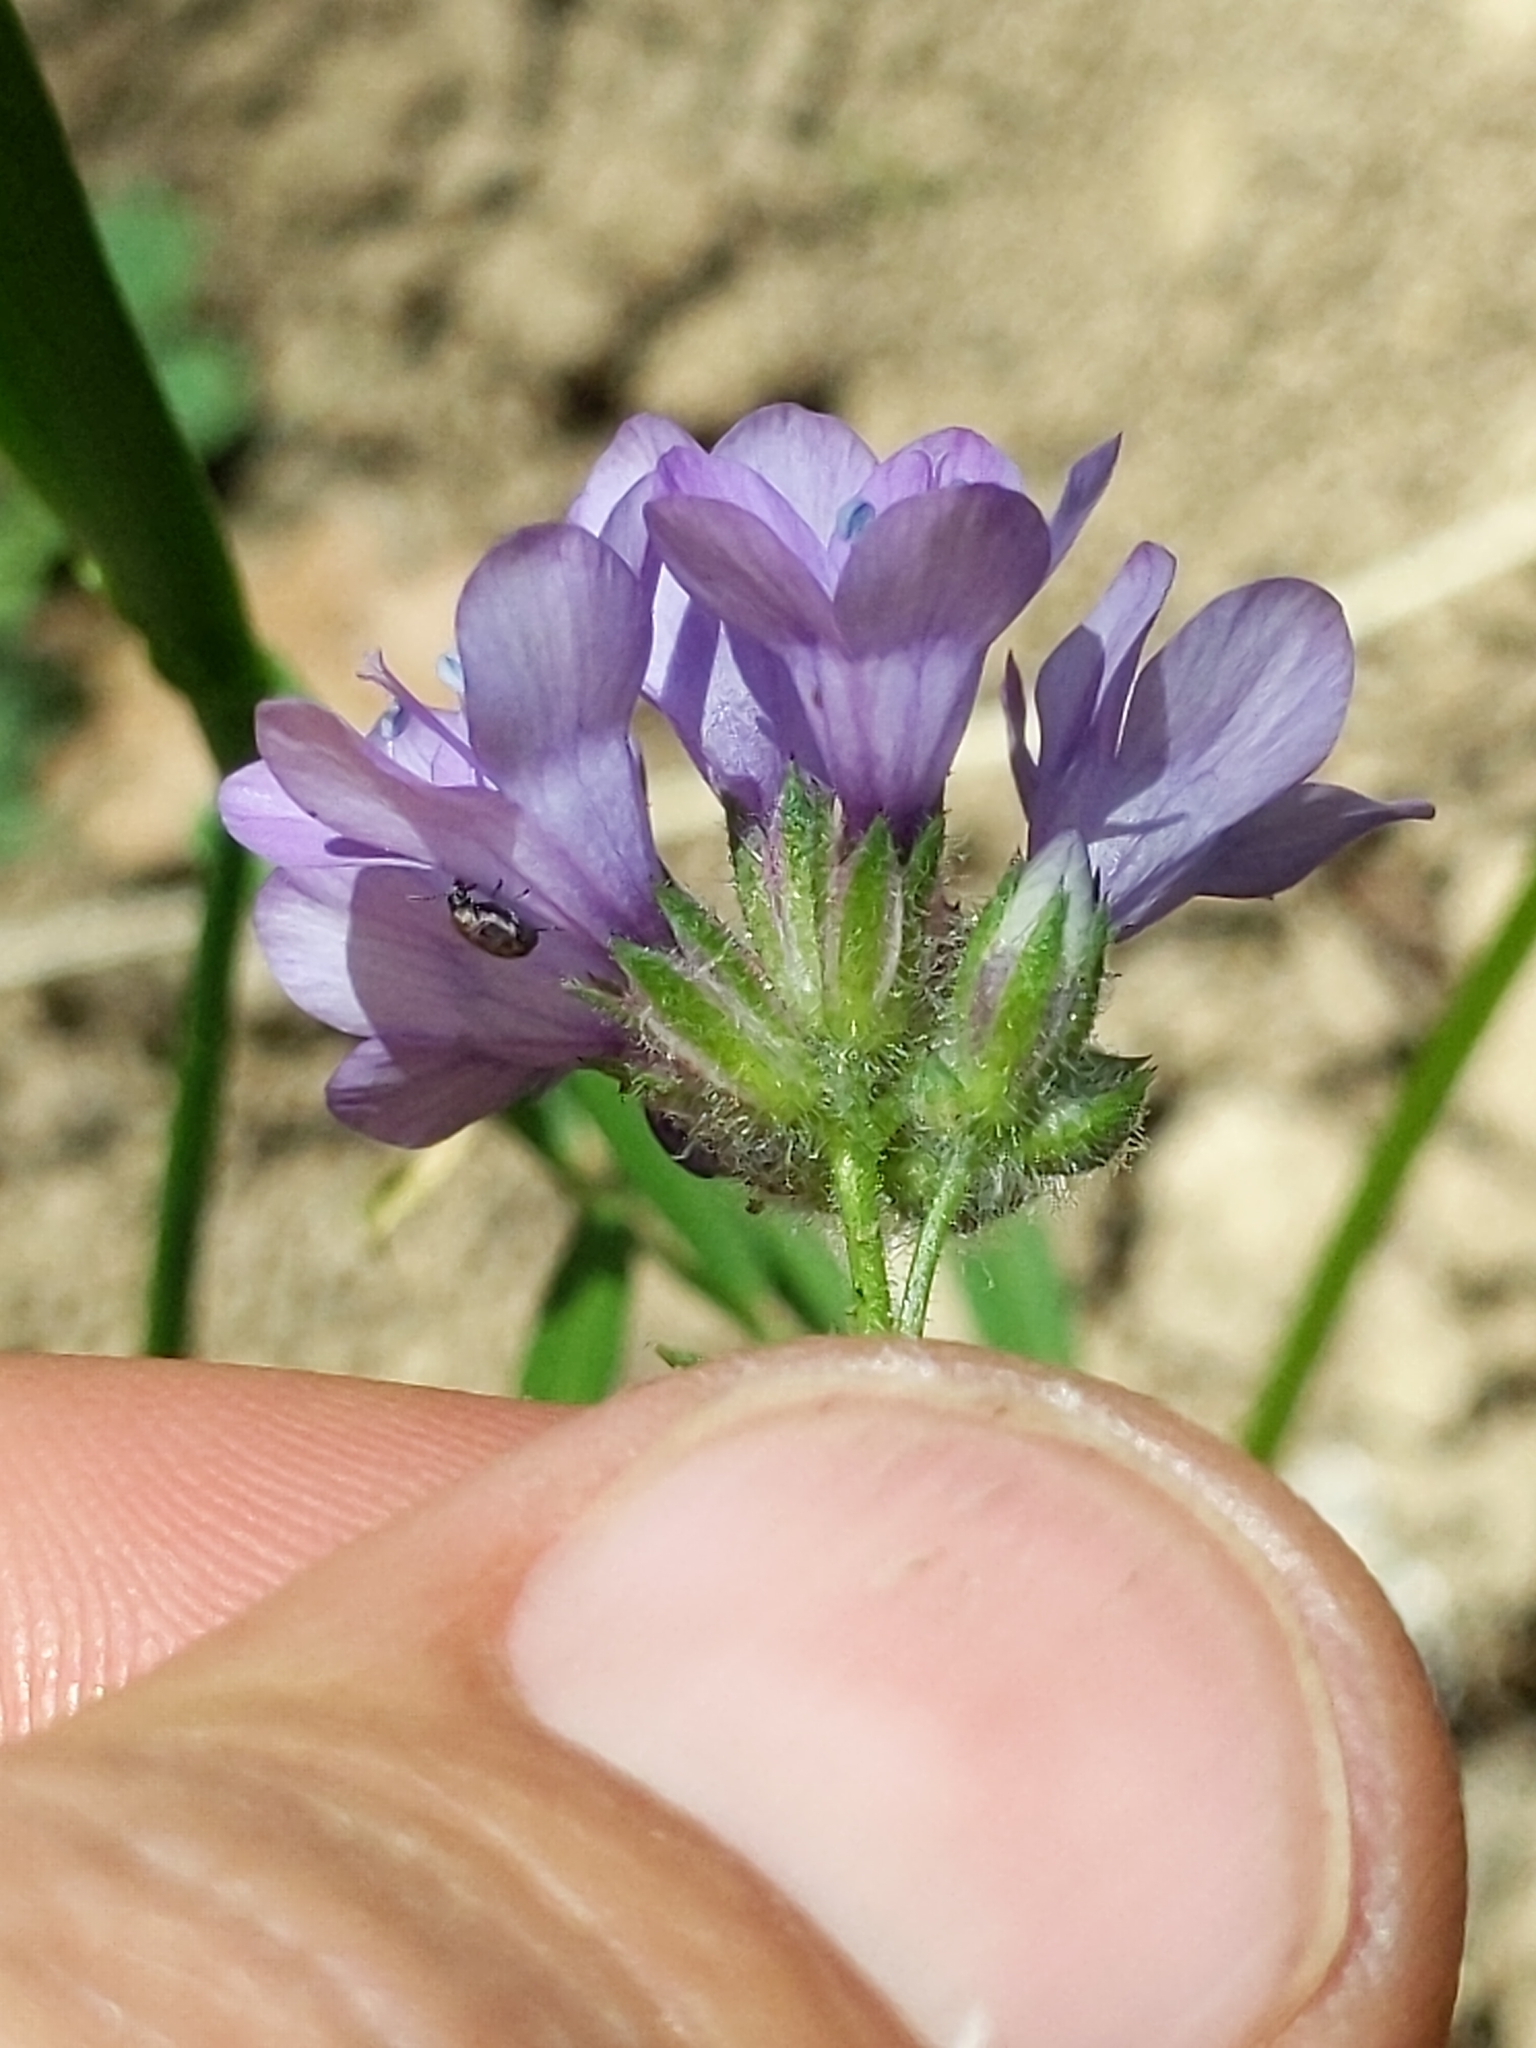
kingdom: Plantae
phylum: Tracheophyta
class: Magnoliopsida
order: Ericales
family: Polemoniaceae
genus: Gilia
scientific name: Gilia achilleifolia
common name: California gily-flower
